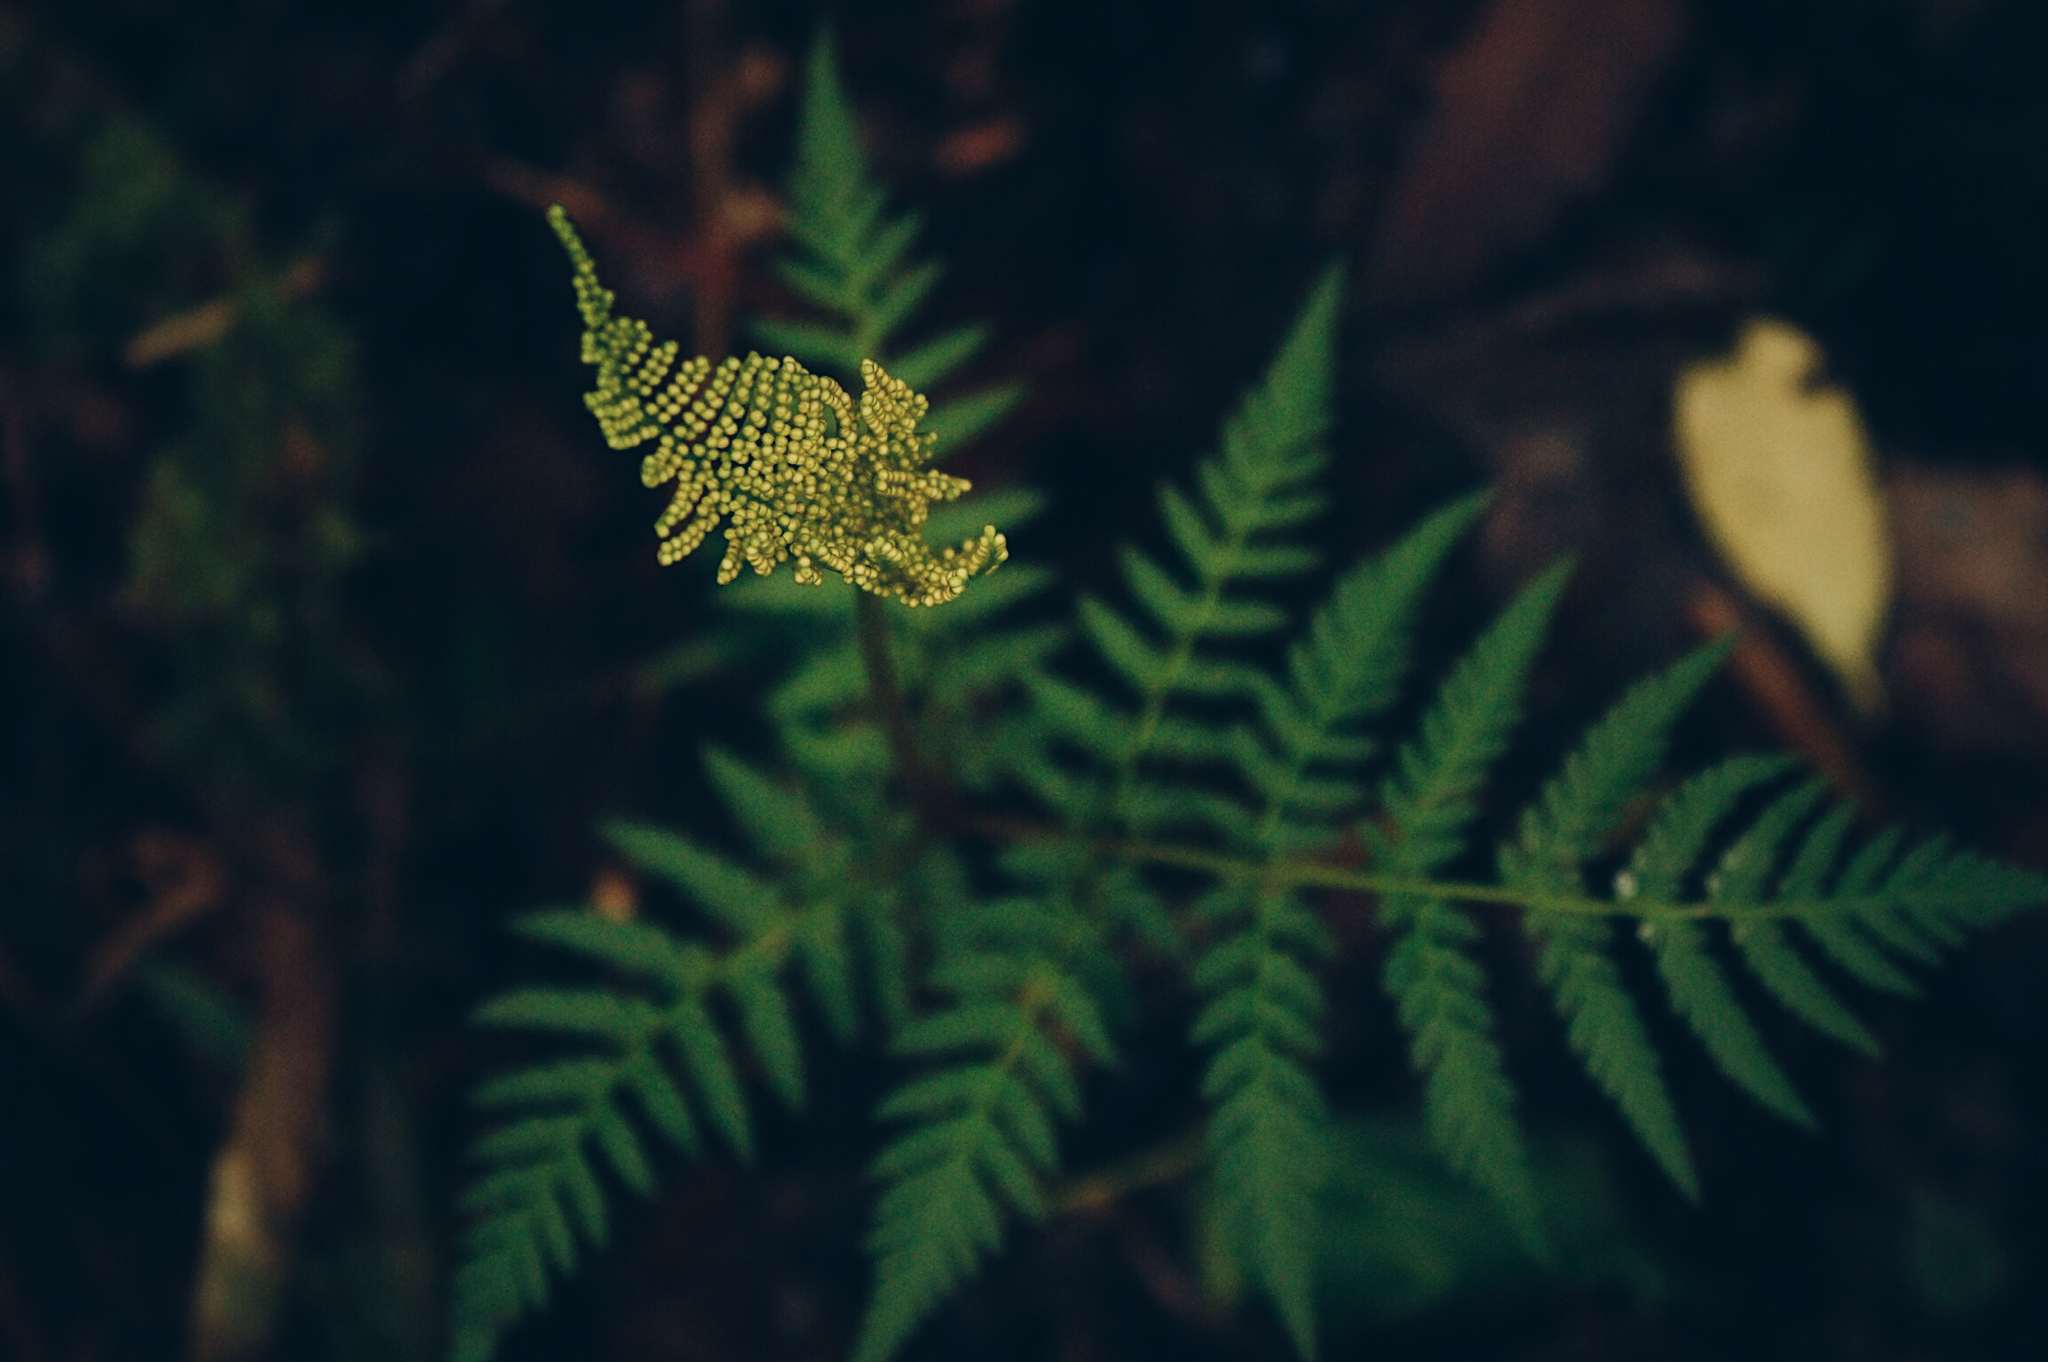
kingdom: Plantae
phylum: Tracheophyta
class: Polypodiopsida
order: Ophioglossales
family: Ophioglossaceae
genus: Botrypus
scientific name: Botrypus virginianus
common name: Common grapefern
